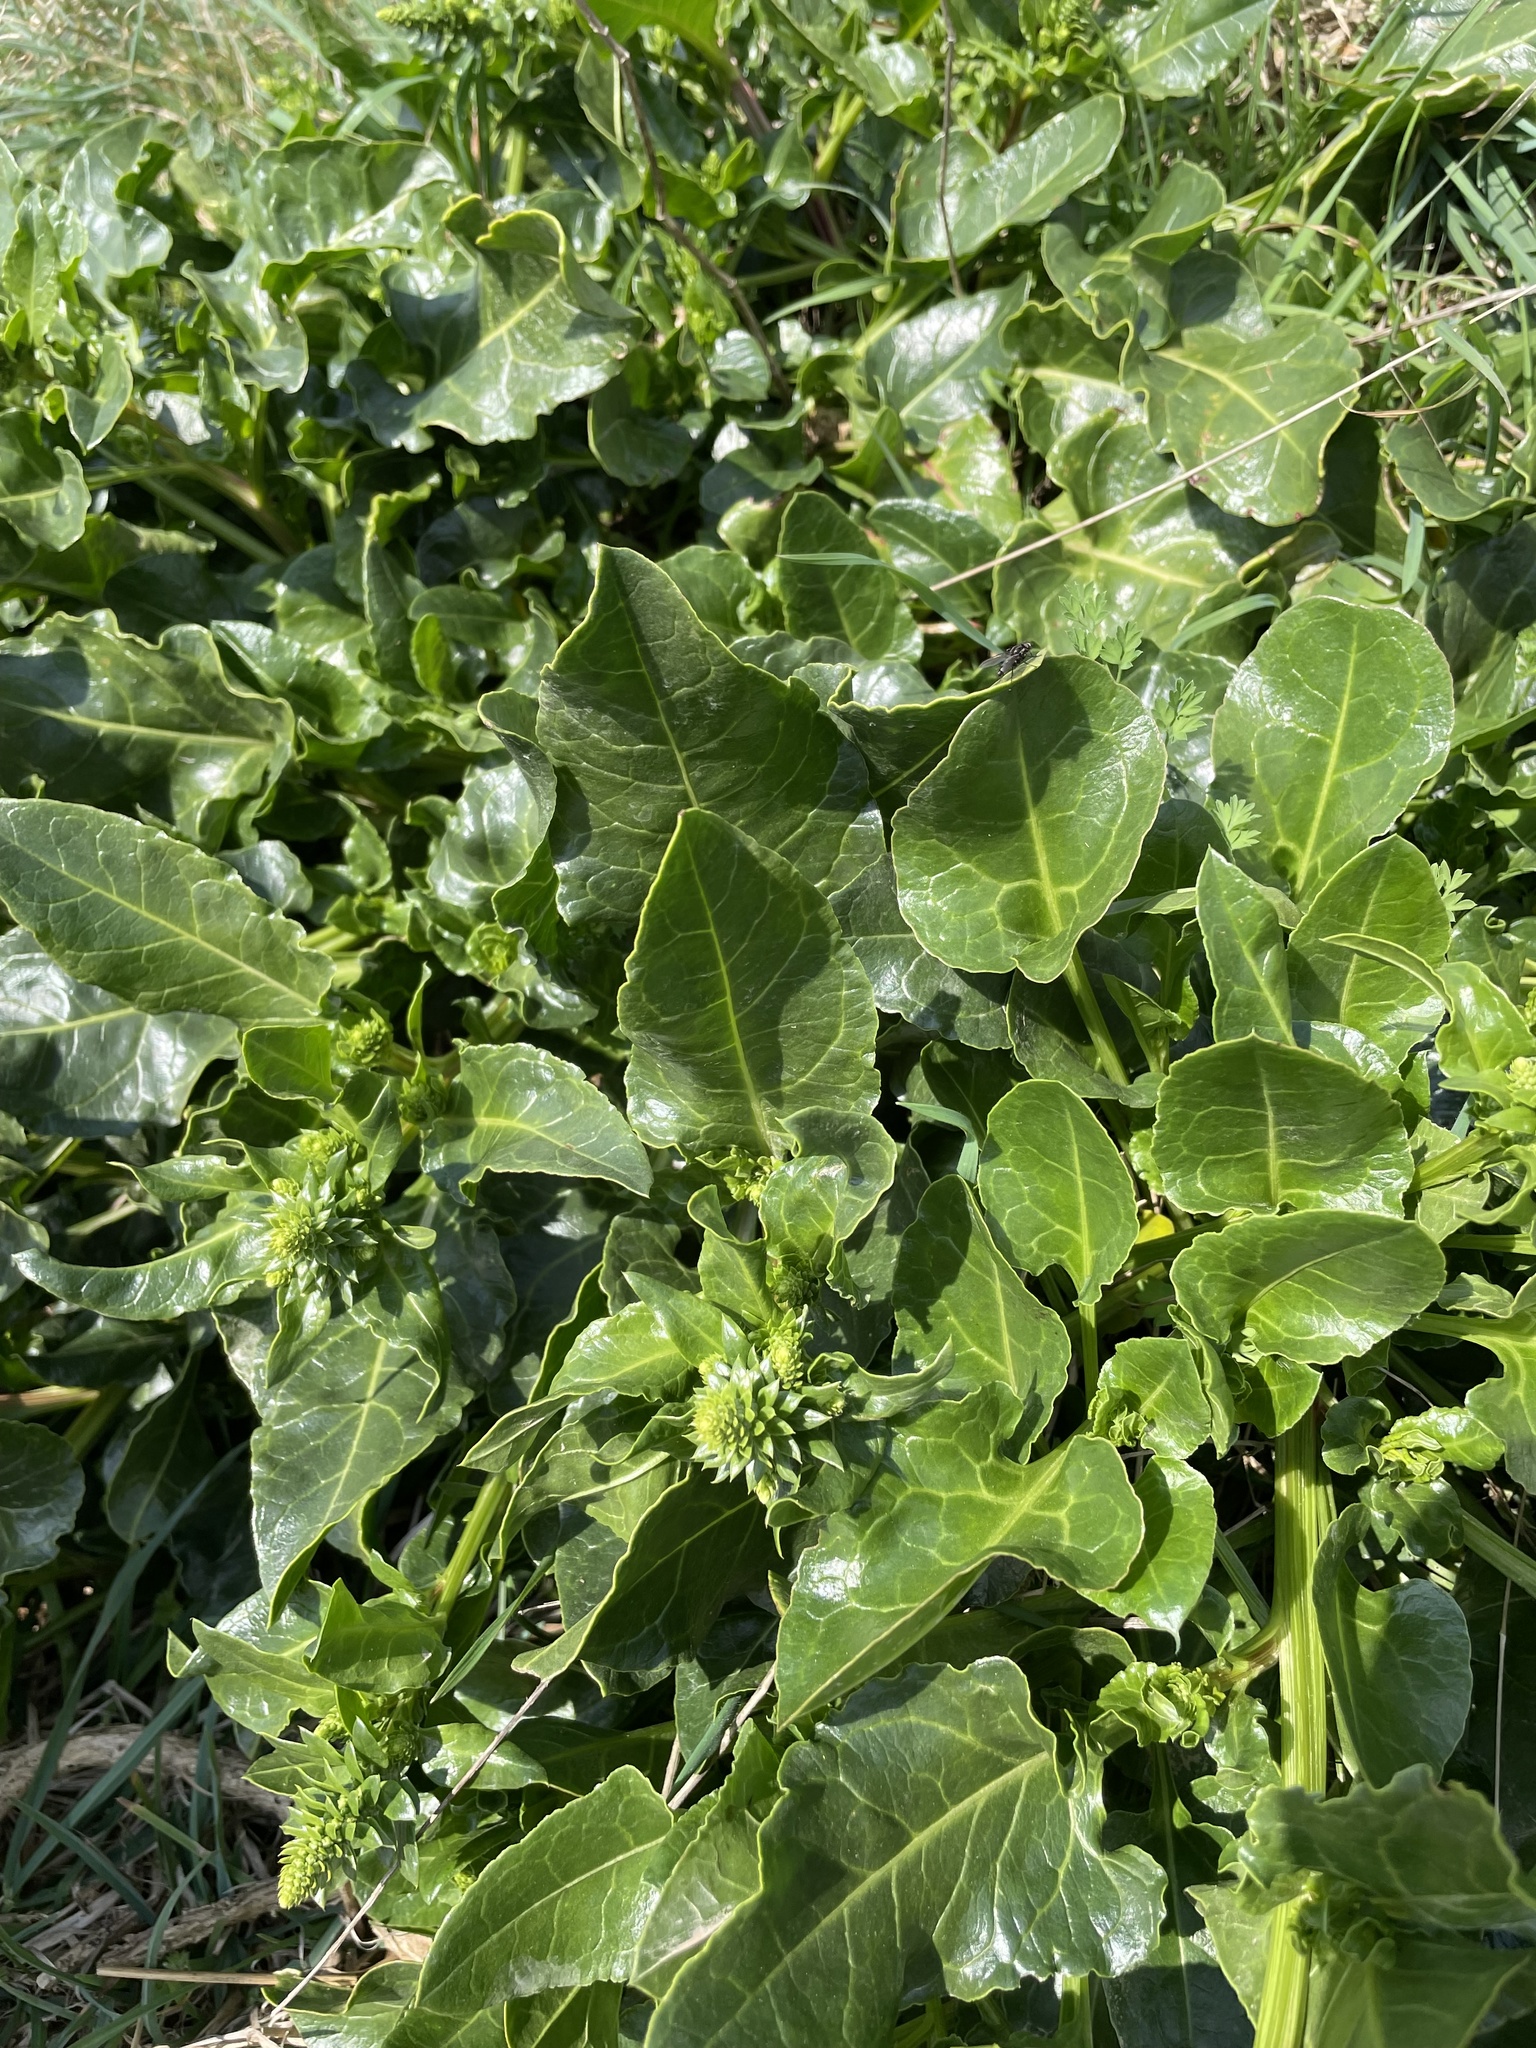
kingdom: Plantae
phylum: Tracheophyta
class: Magnoliopsida
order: Caryophyllales
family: Amaranthaceae
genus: Beta
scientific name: Beta vulgaris
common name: Beet
